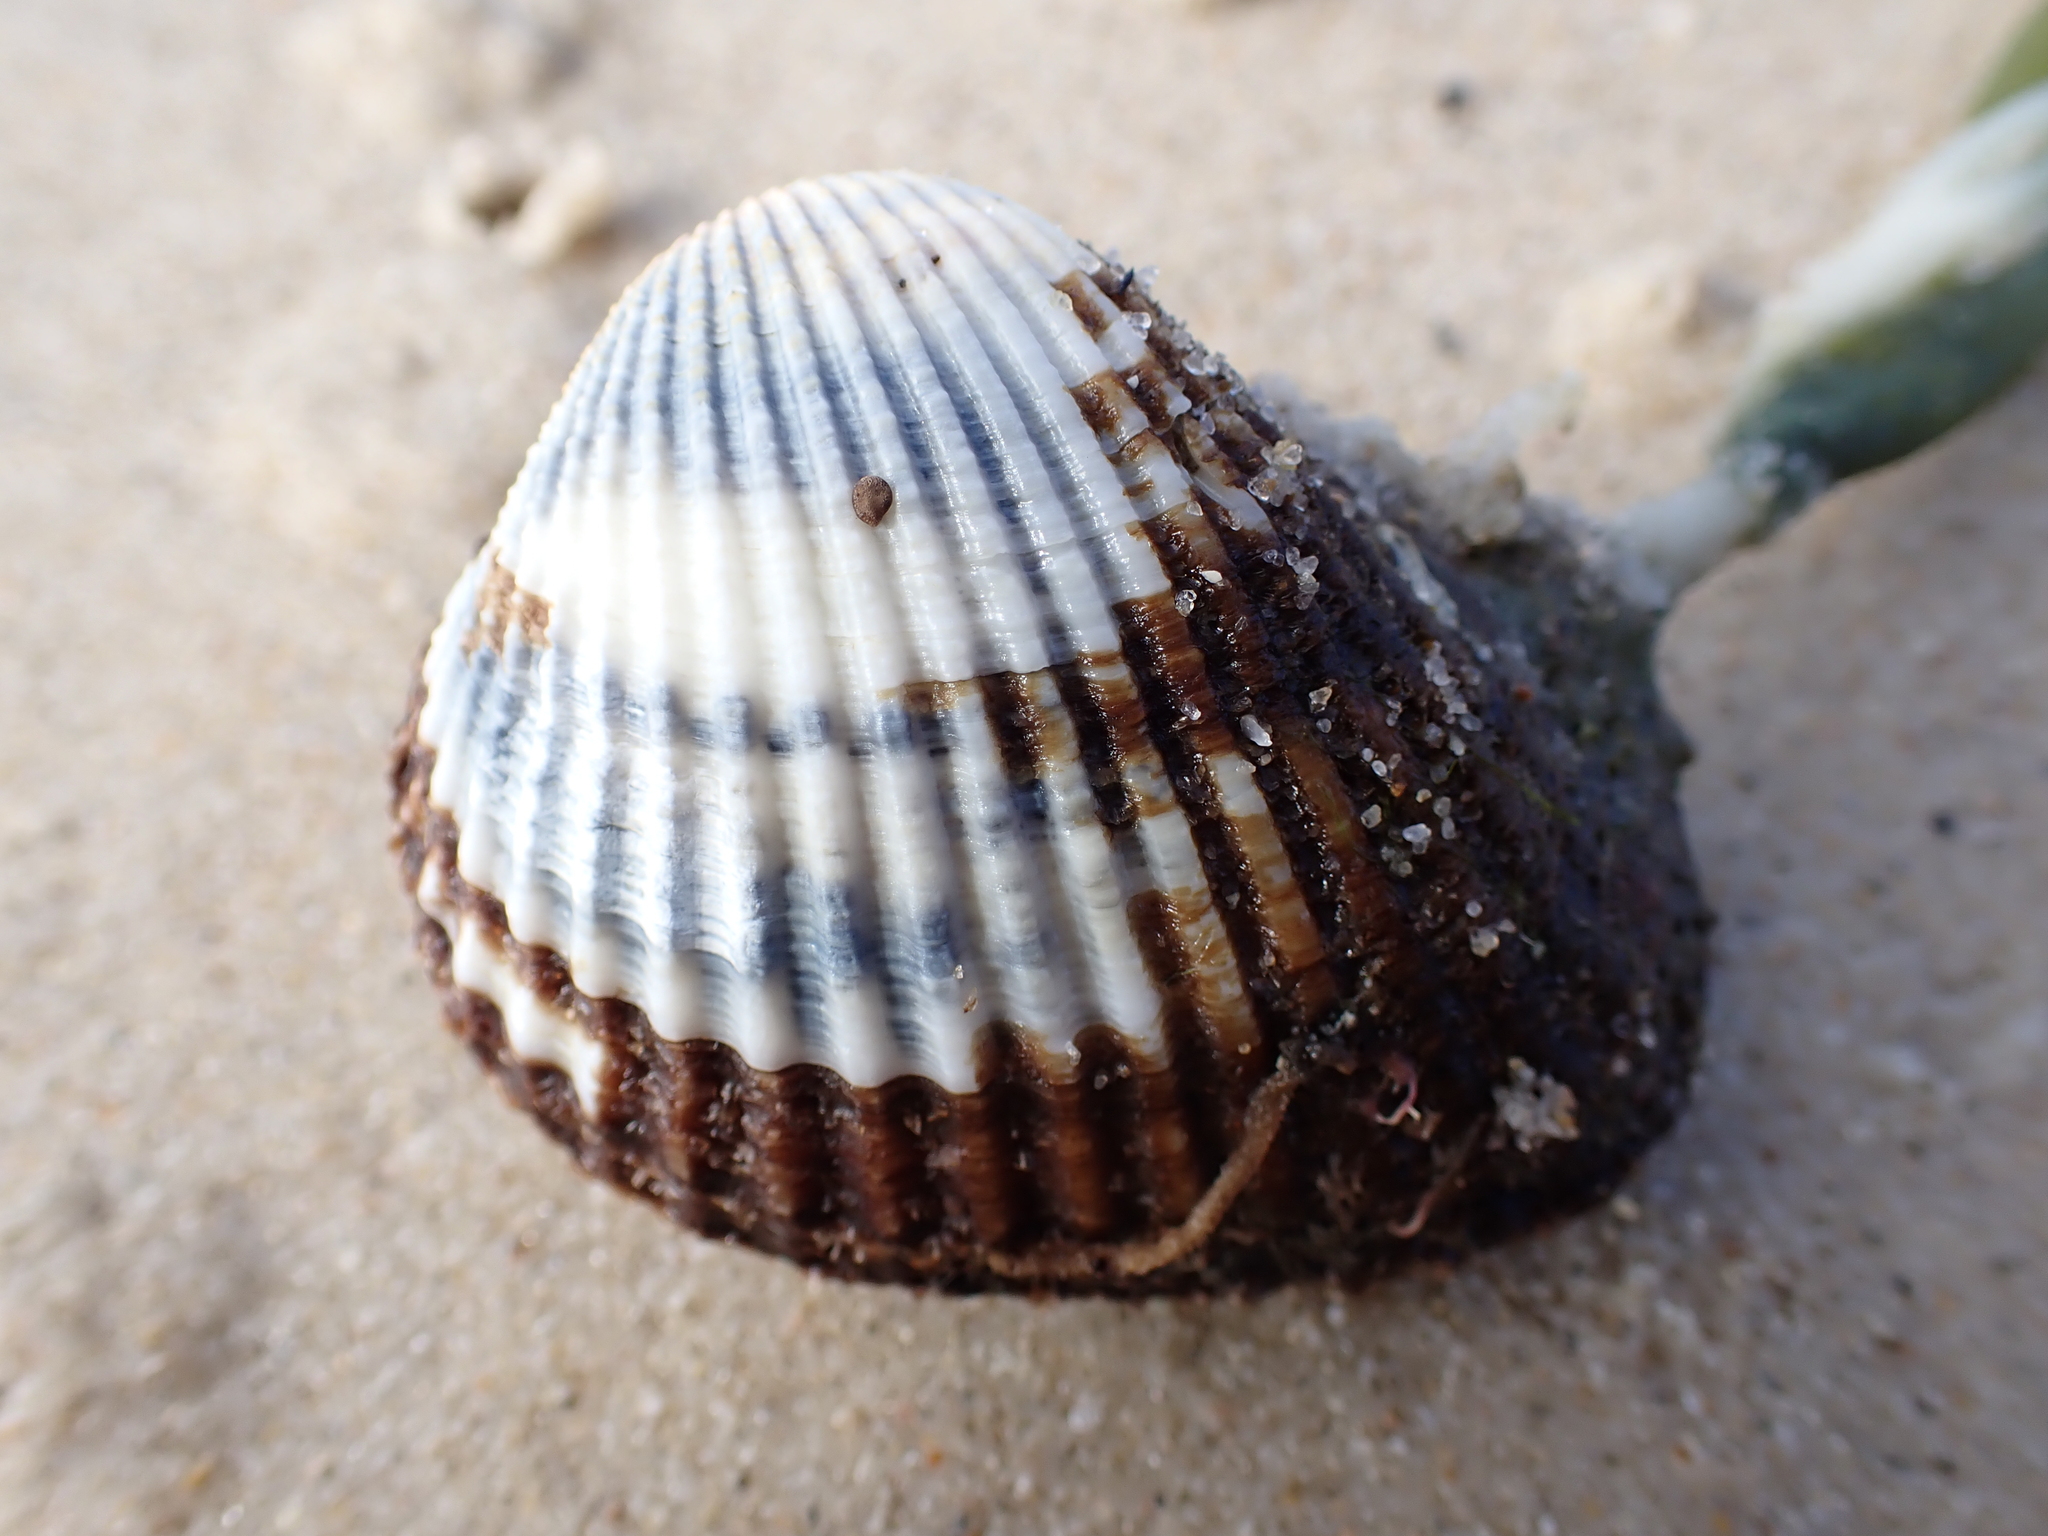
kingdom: Animalia
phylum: Mollusca
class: Bivalvia
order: Arcida
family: Arcidae
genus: Anadara
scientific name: Anadara trapezia
